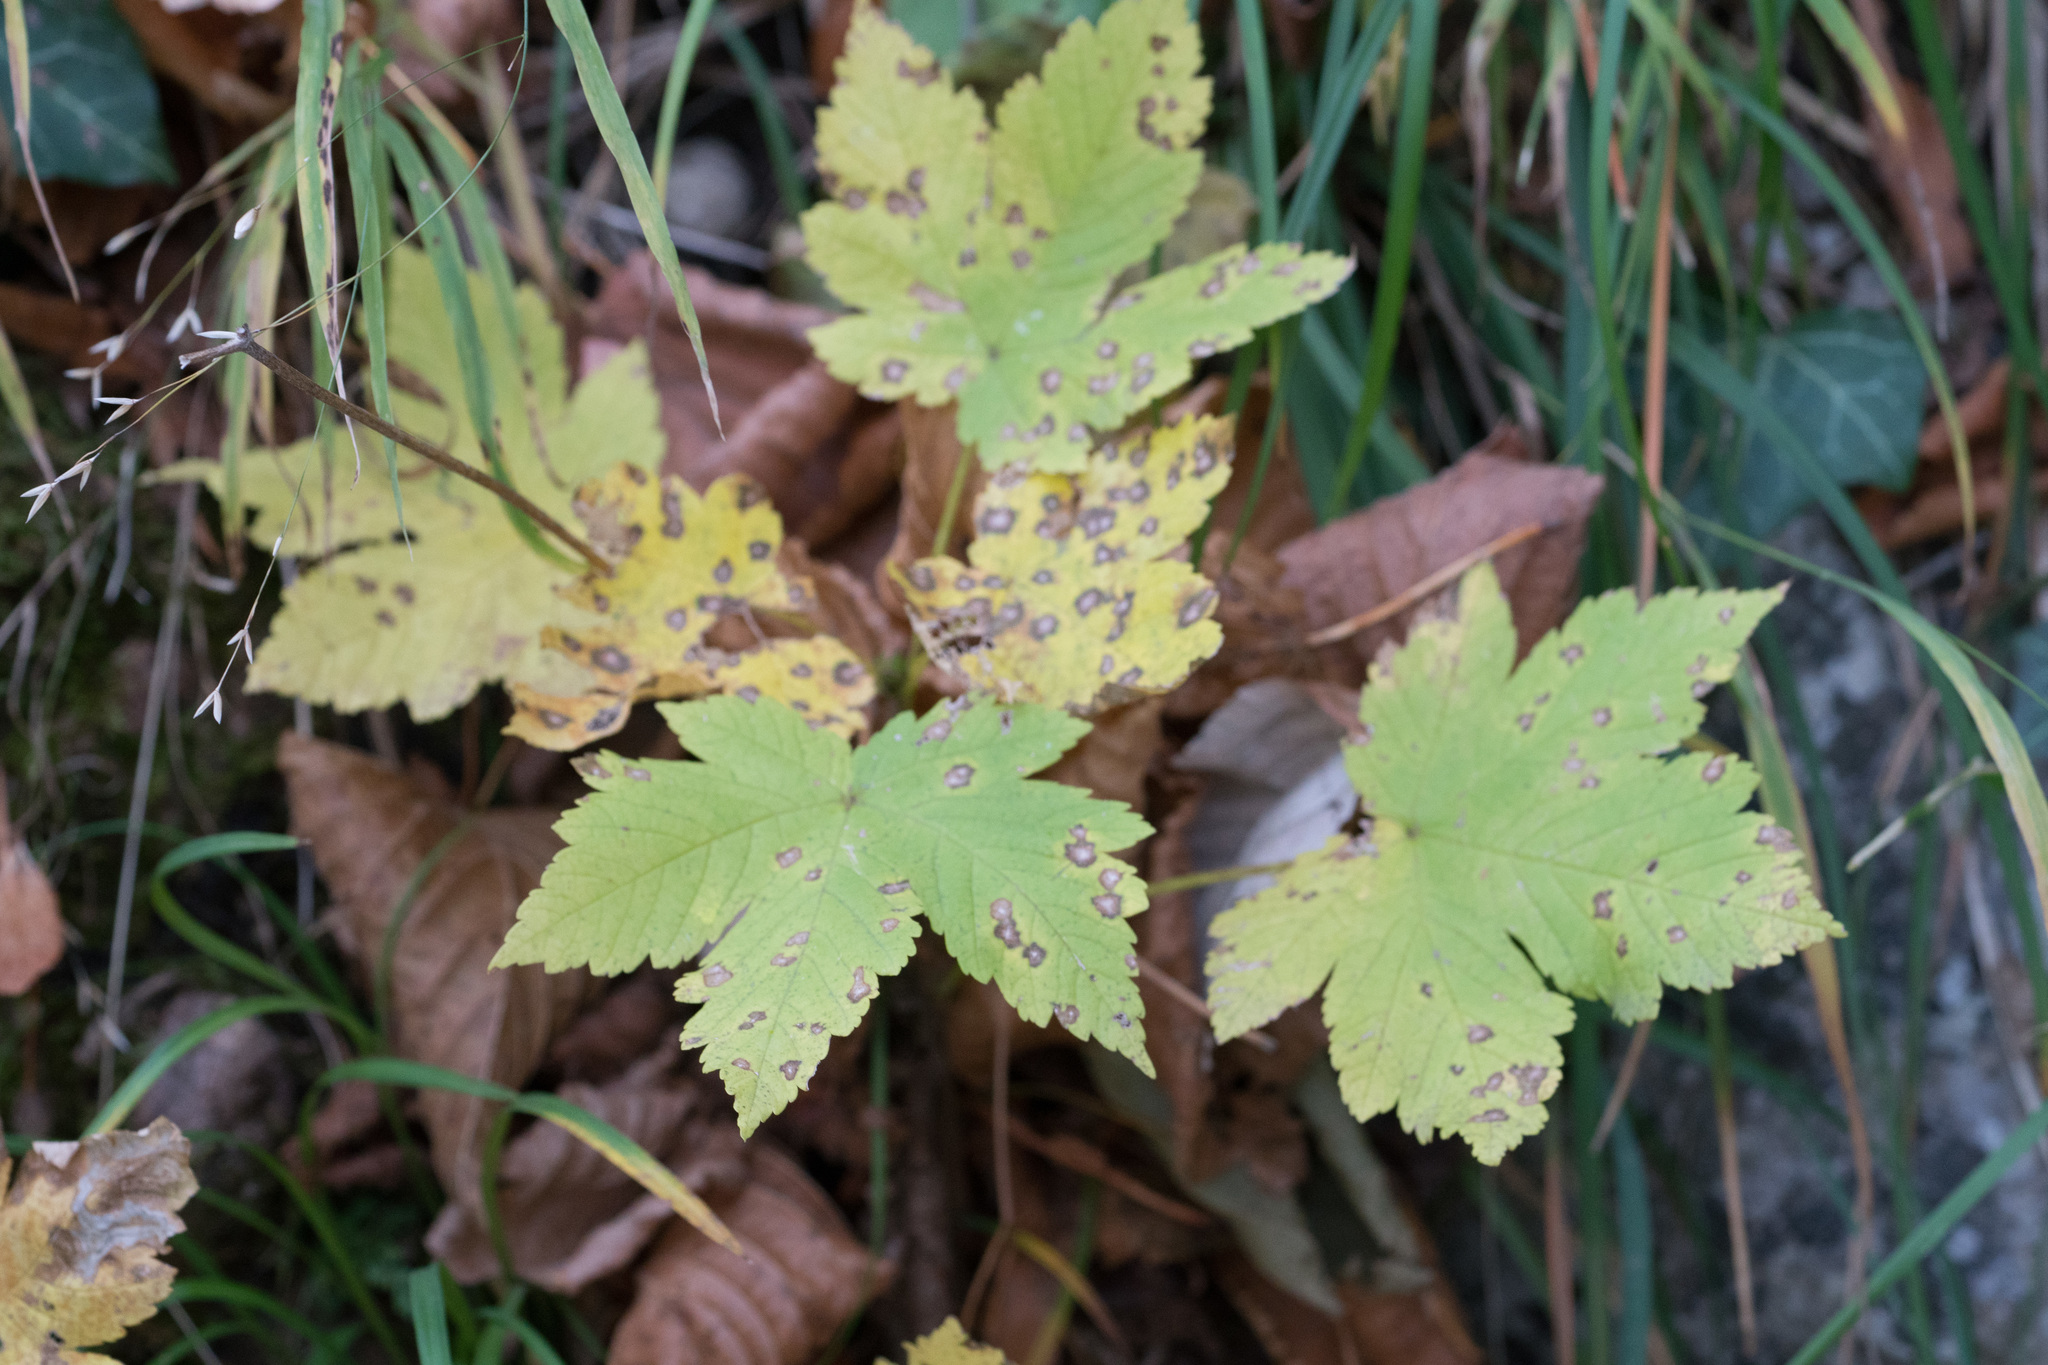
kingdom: Plantae
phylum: Tracheophyta
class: Magnoliopsida
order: Sapindales
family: Sapindaceae
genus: Acer
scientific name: Acer pseudoplatanus
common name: Sycamore
